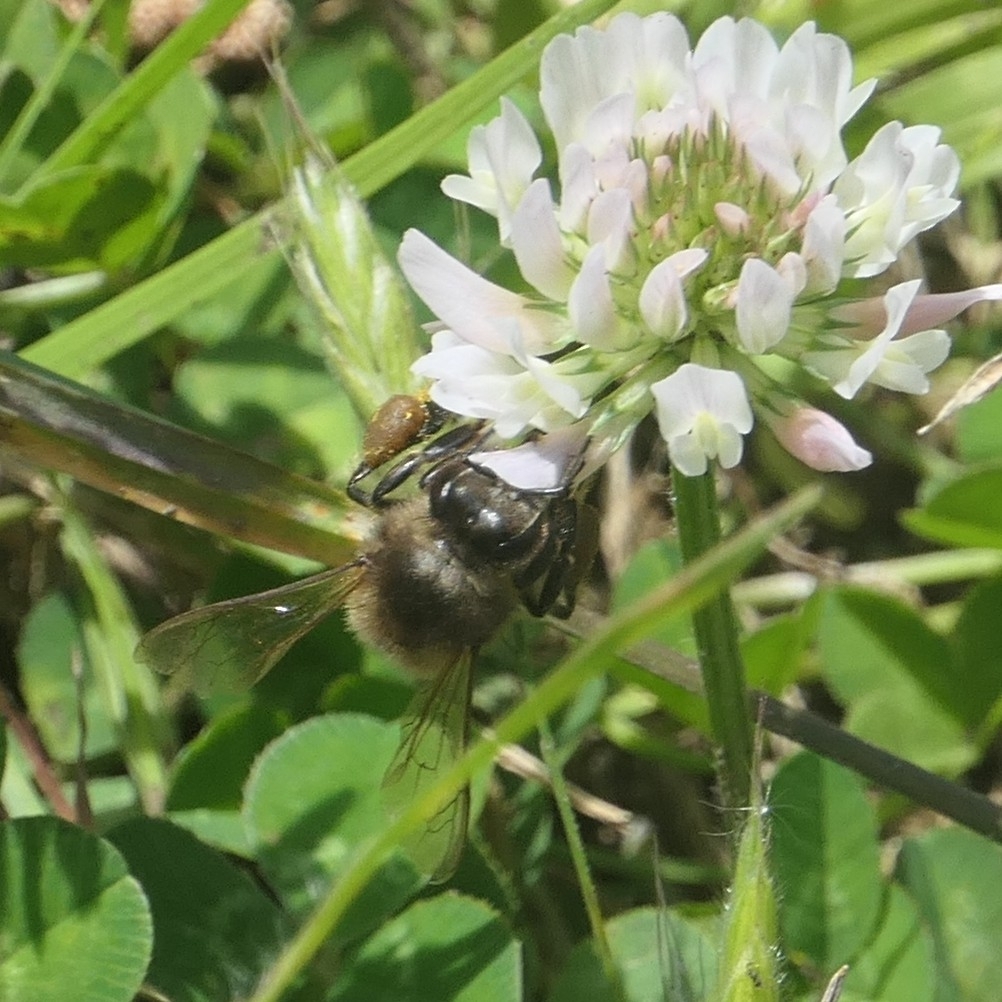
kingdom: Animalia
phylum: Arthropoda
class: Insecta
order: Hymenoptera
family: Apidae
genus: Apis
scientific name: Apis mellifera
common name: Honey bee
